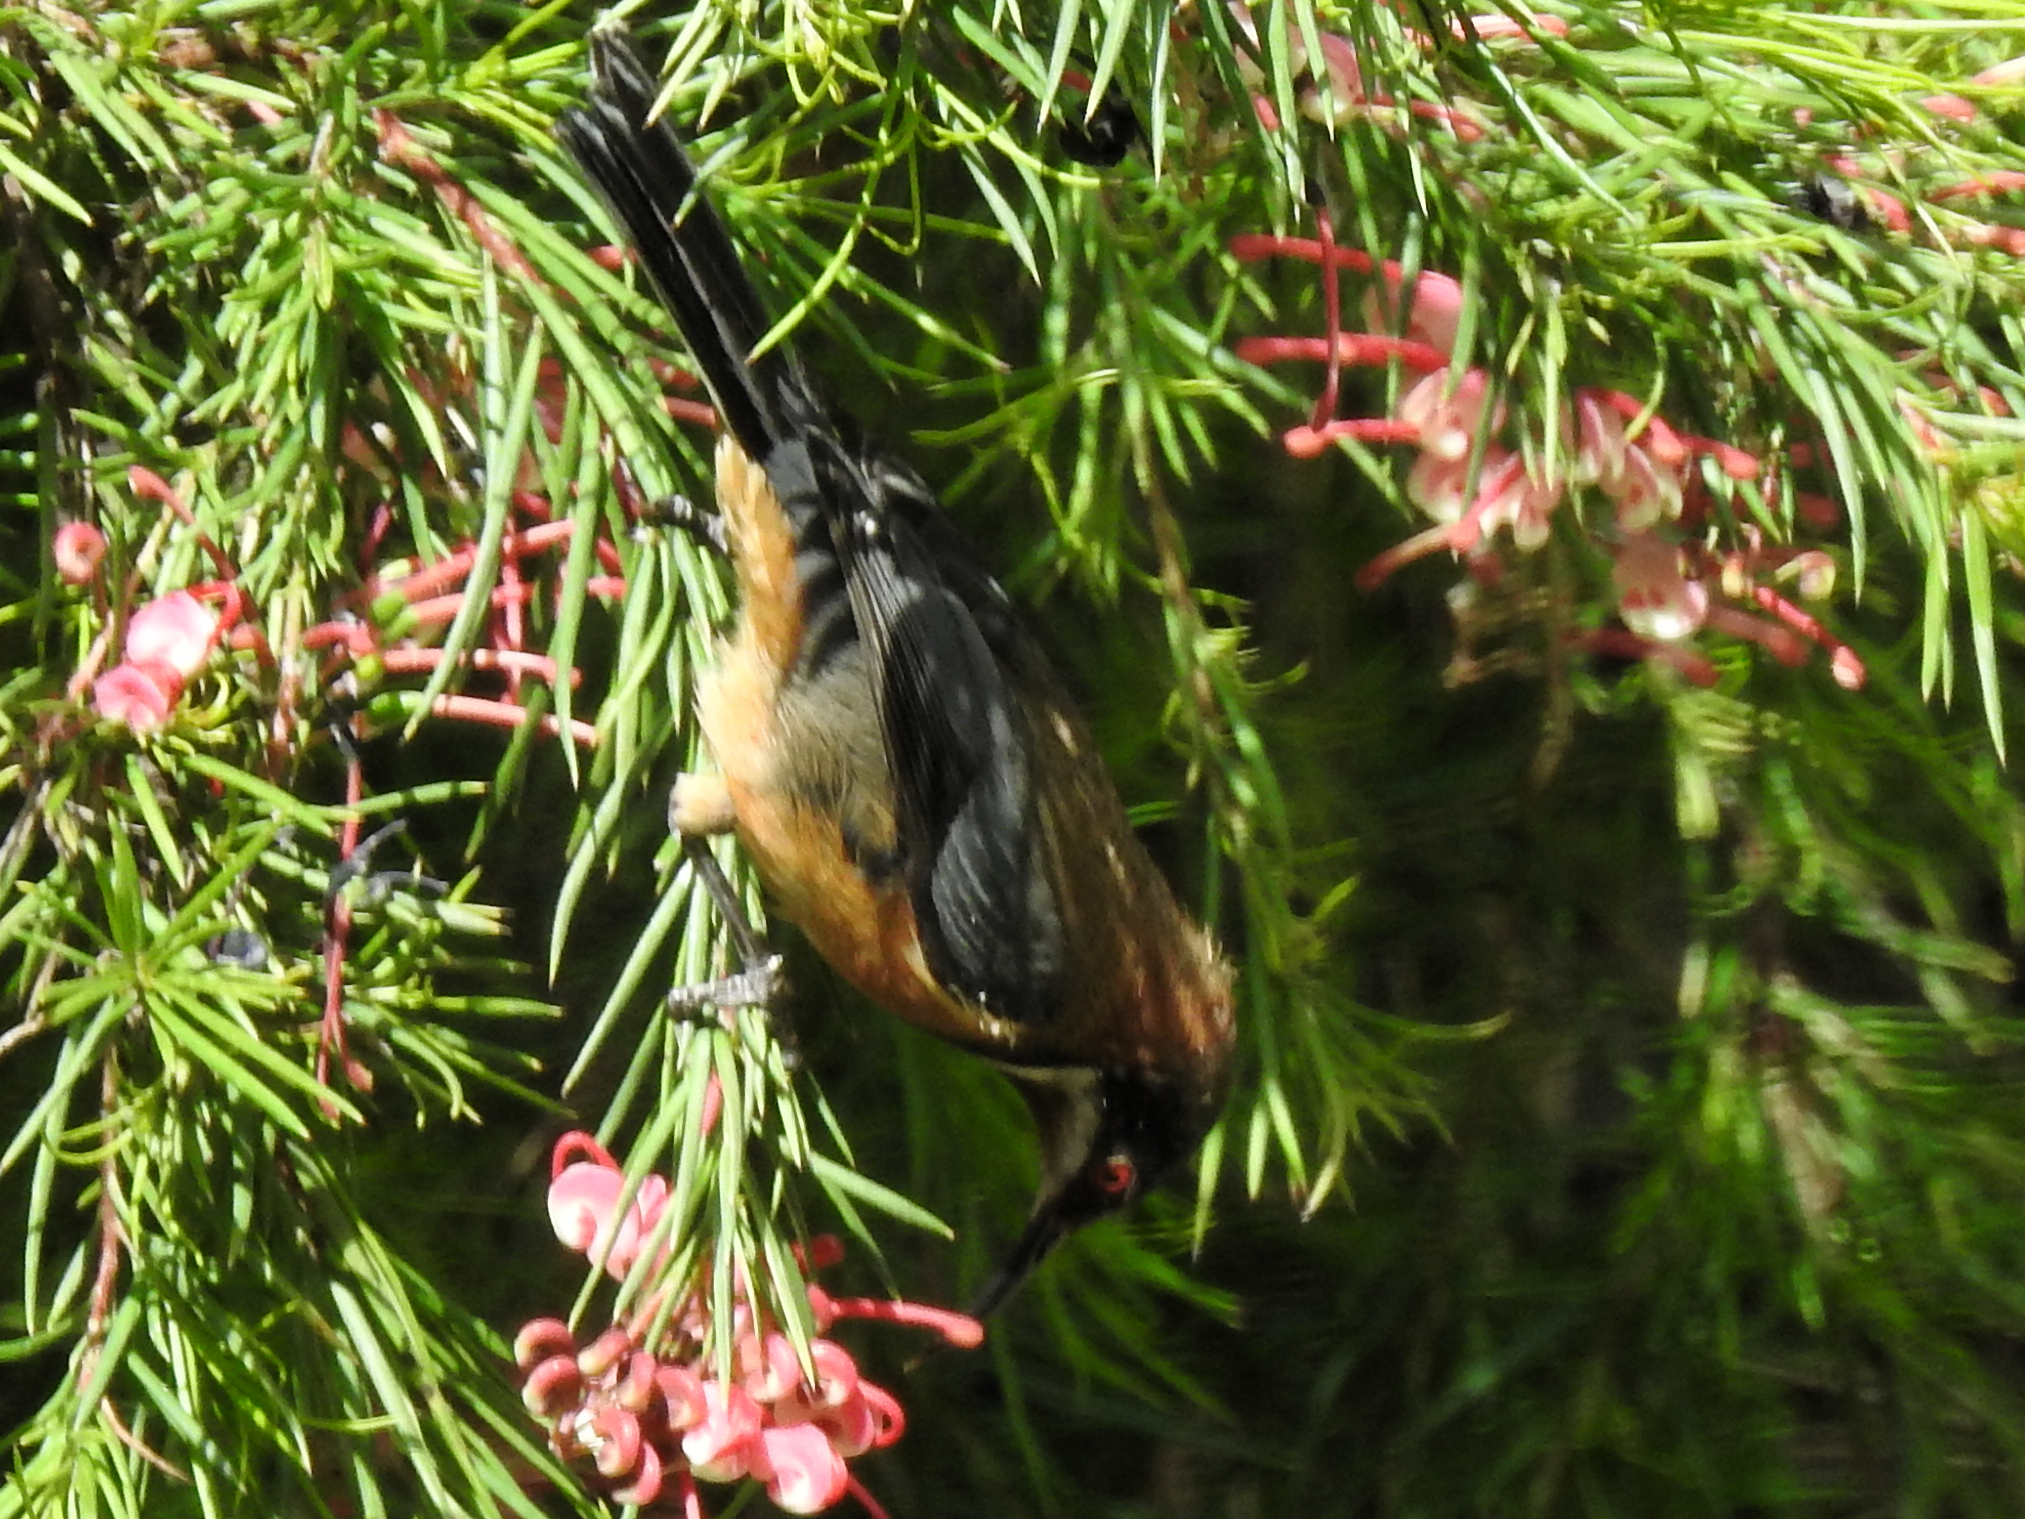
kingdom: Animalia
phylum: Chordata
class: Aves
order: Passeriformes
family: Meliphagidae
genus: Acanthorhynchus
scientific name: Acanthorhynchus tenuirostris
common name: Eastern spinebill
